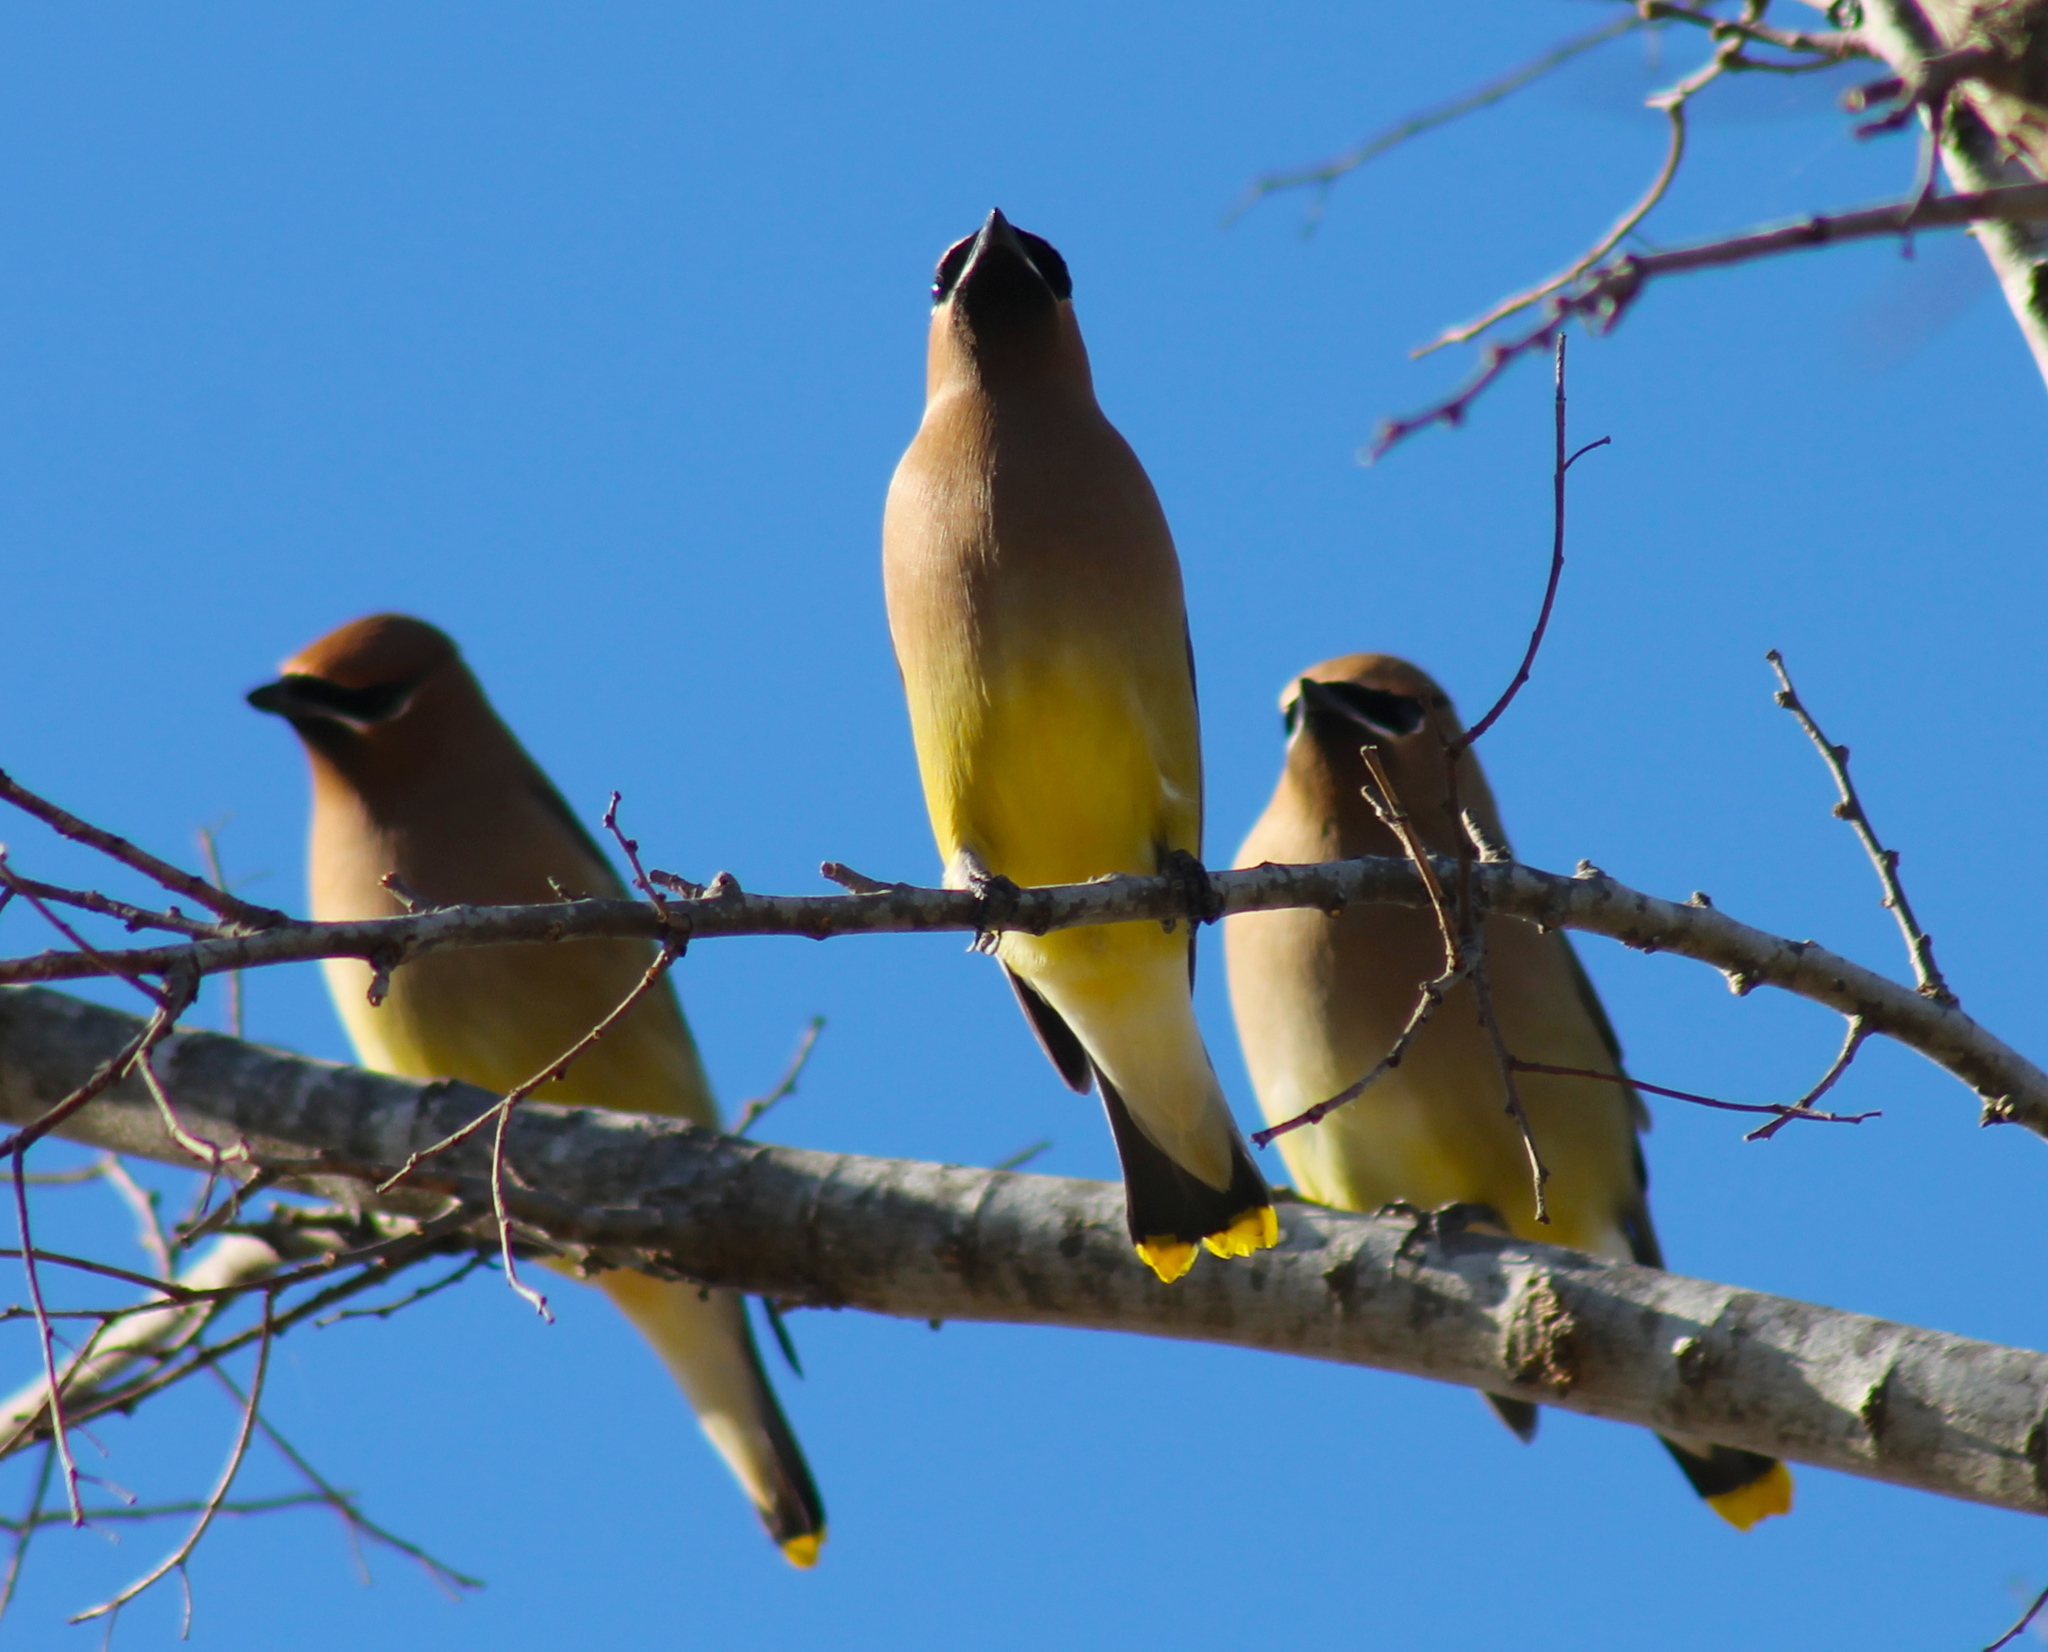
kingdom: Animalia
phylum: Chordata
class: Aves
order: Passeriformes
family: Bombycillidae
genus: Bombycilla
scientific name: Bombycilla cedrorum
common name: Cedar waxwing
